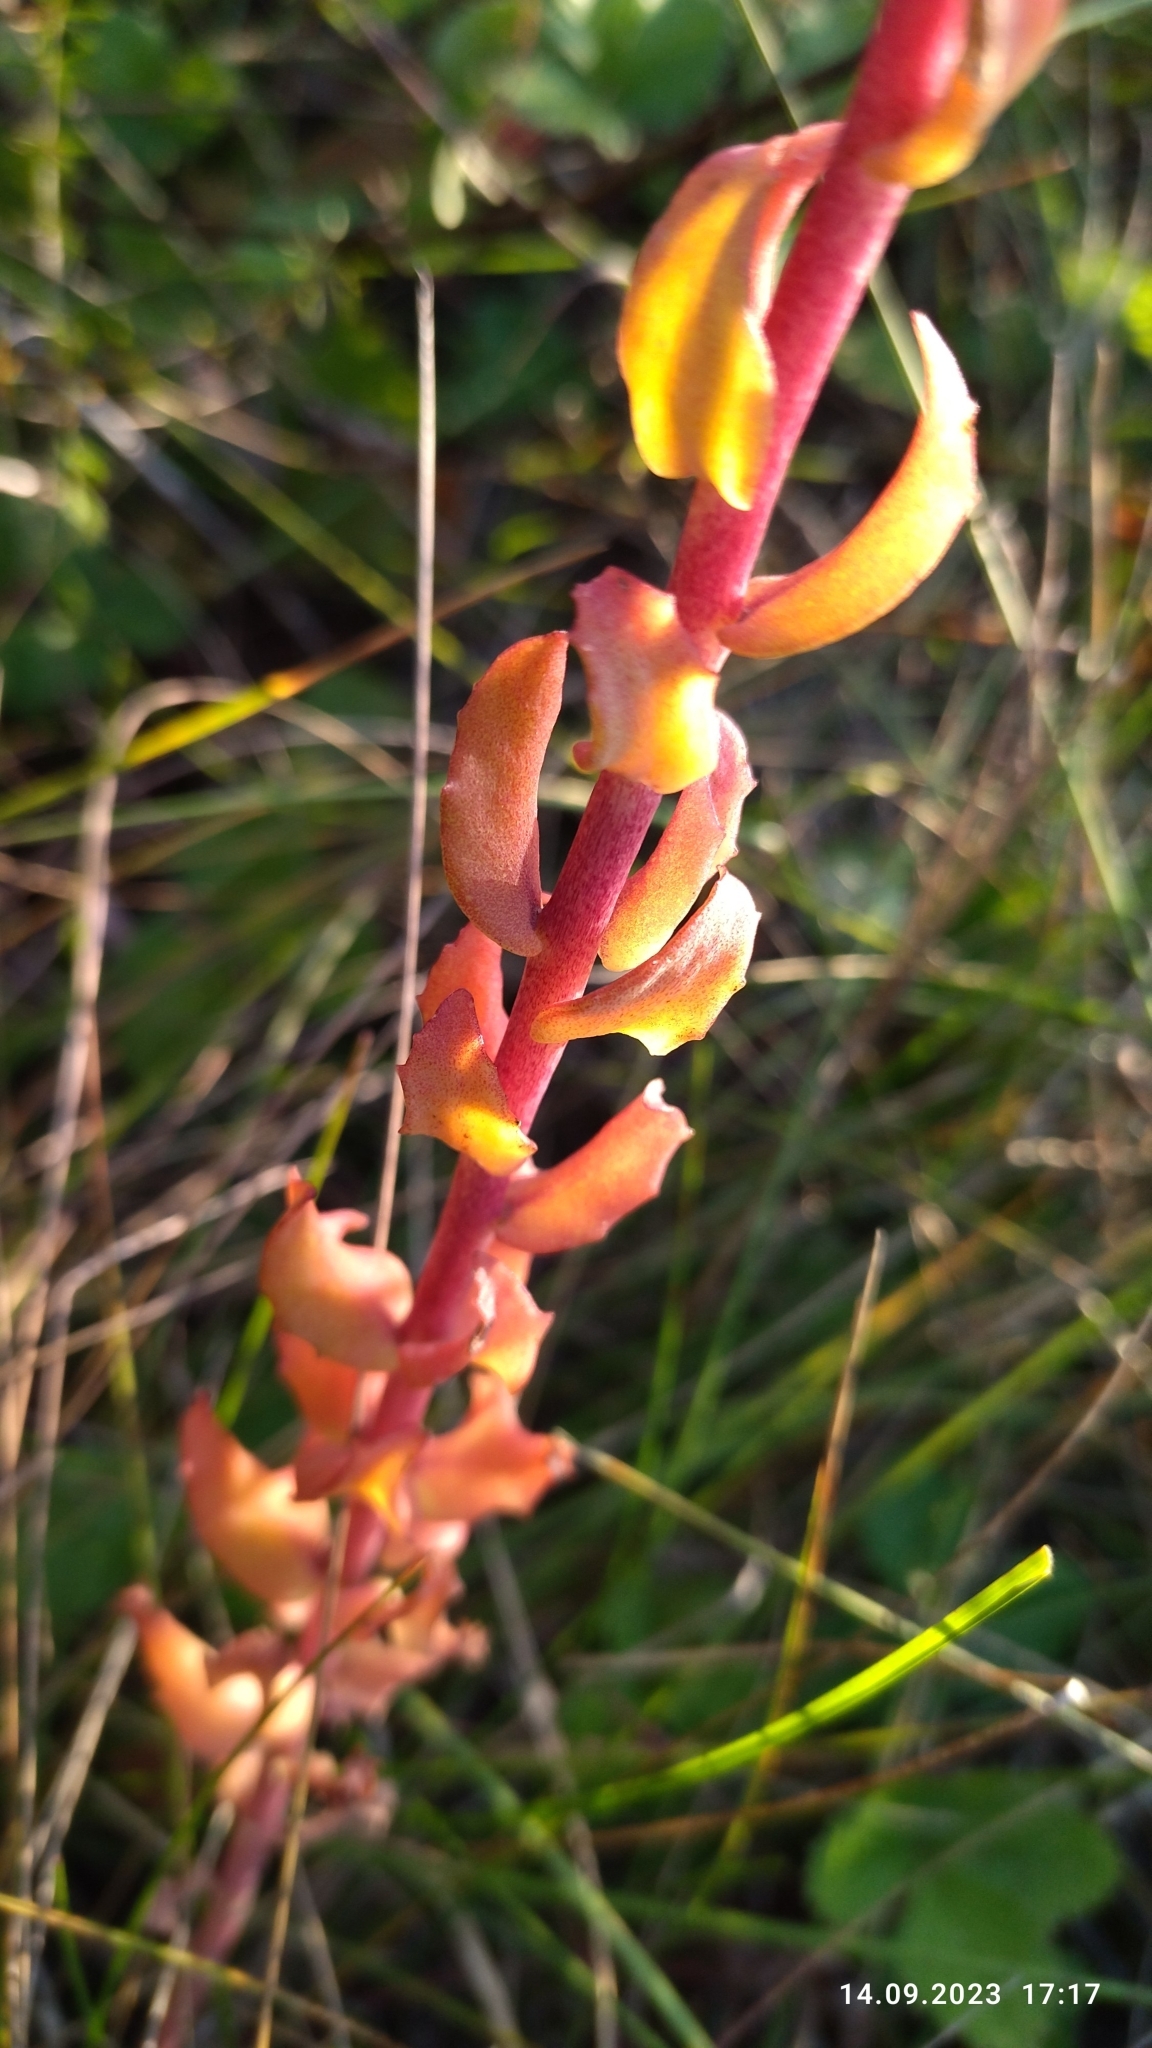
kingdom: Plantae
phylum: Tracheophyta
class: Magnoliopsida
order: Saxifragales
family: Crassulaceae
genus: Hylotelephium
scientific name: Hylotelephium telephium
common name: Live-forever
